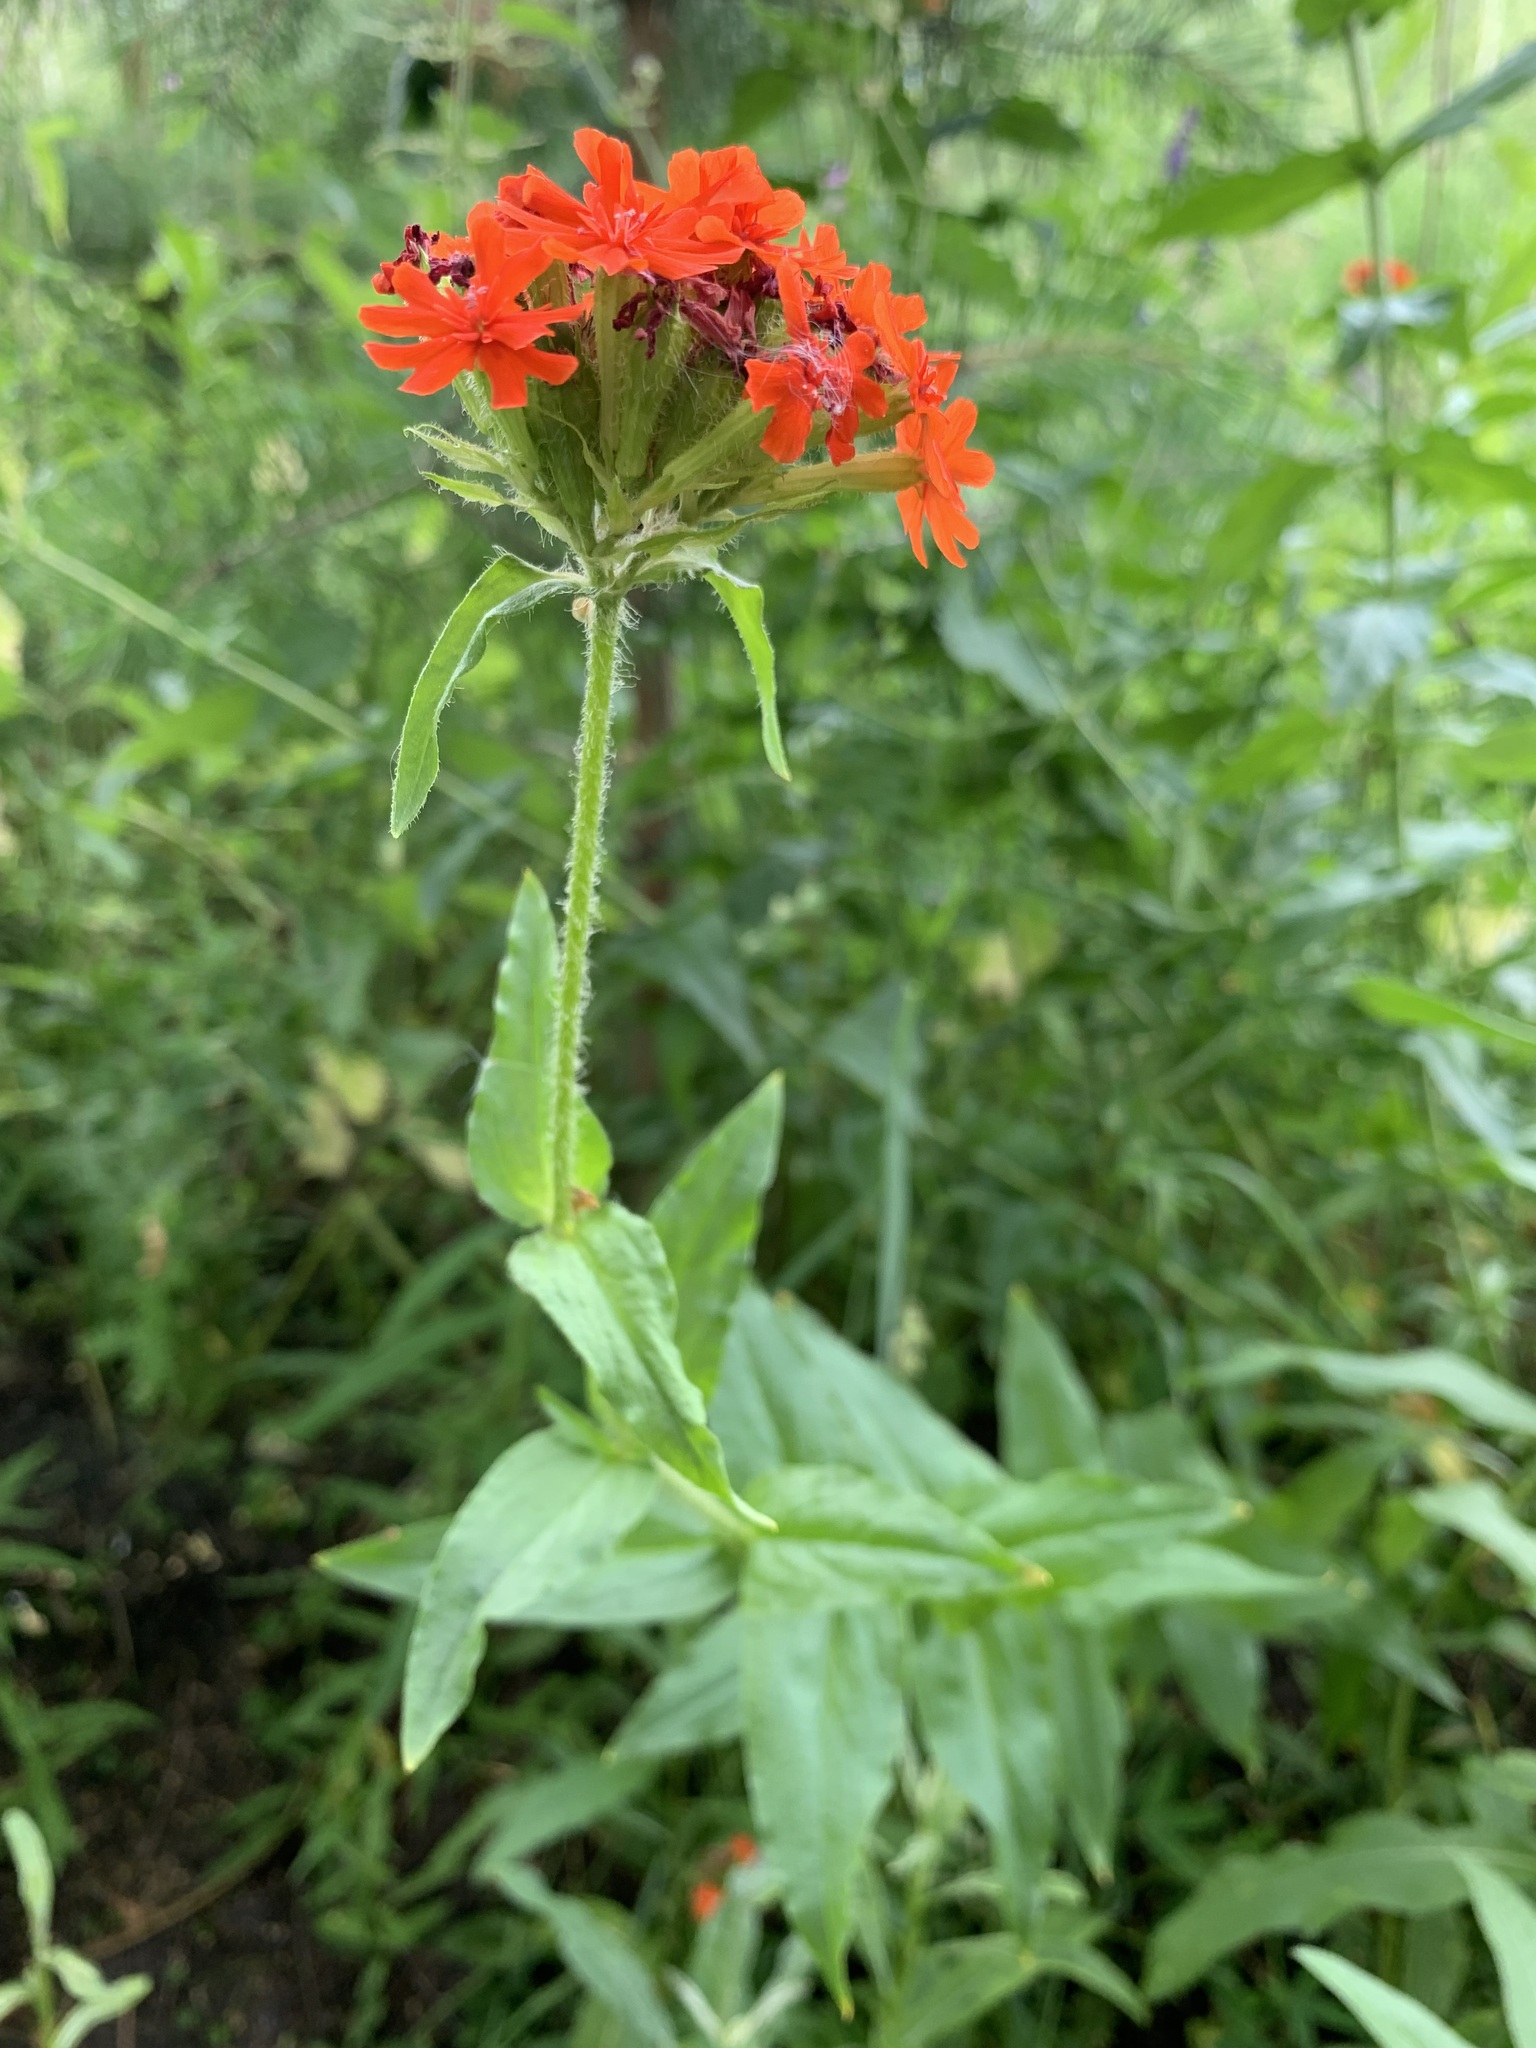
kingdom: Plantae
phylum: Tracheophyta
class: Magnoliopsida
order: Caryophyllales
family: Caryophyllaceae
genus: Silene
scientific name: Silene chalcedonica
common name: Maltese-cross
